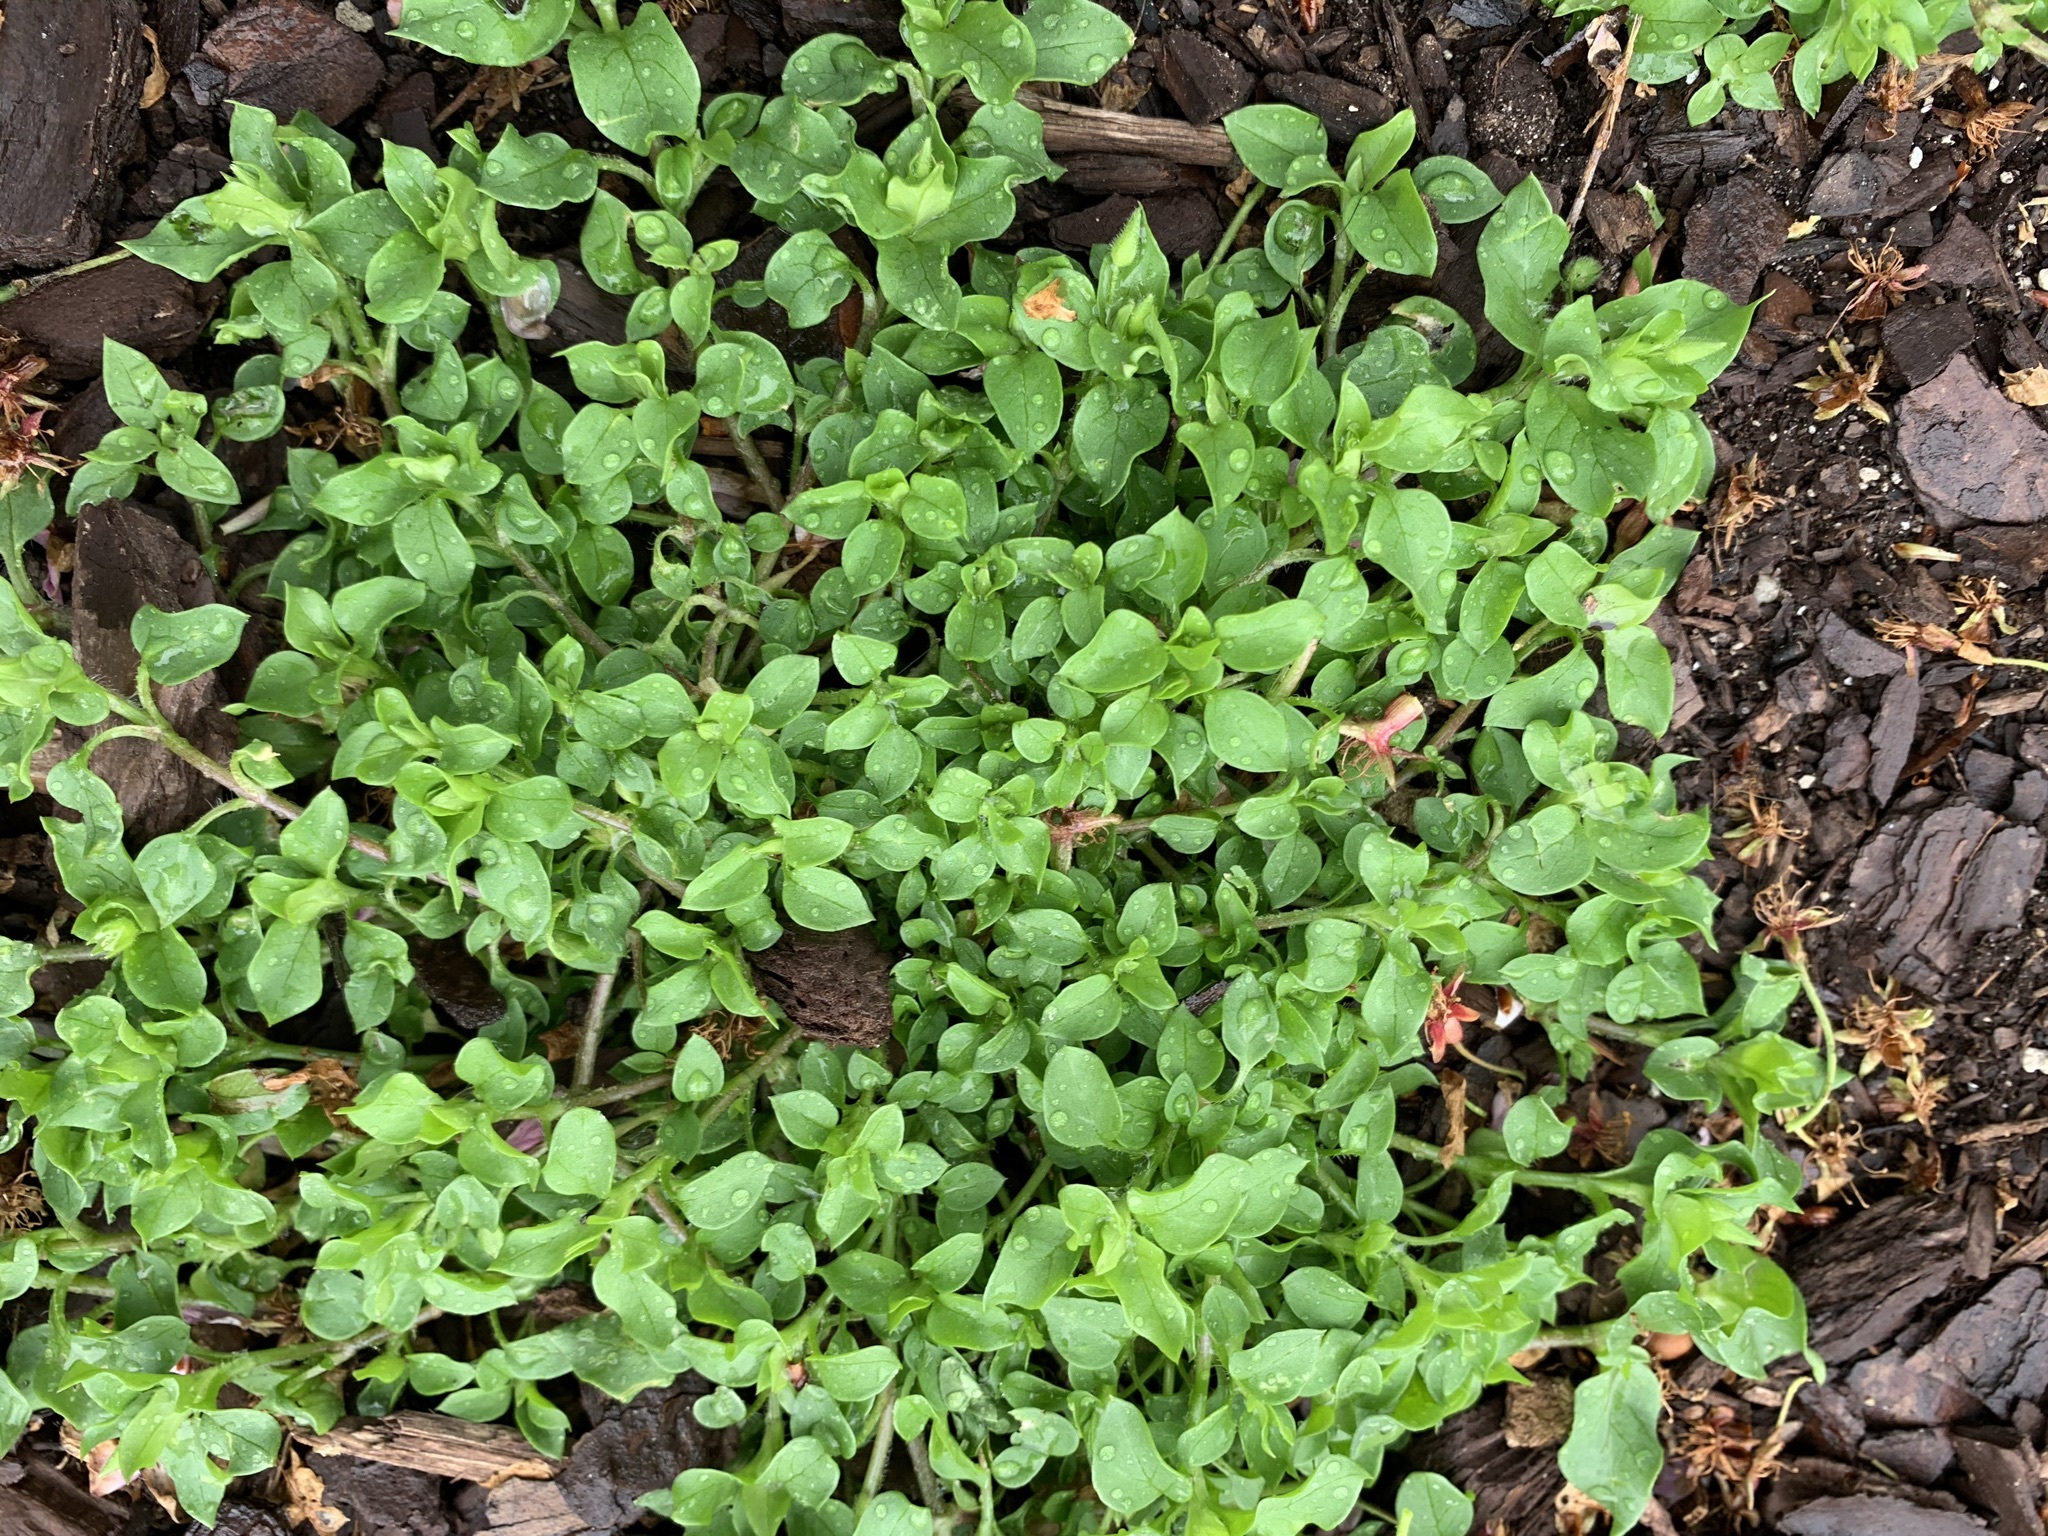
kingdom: Plantae
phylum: Tracheophyta
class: Magnoliopsida
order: Caryophyllales
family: Caryophyllaceae
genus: Stellaria
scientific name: Stellaria media
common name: Common chickweed
